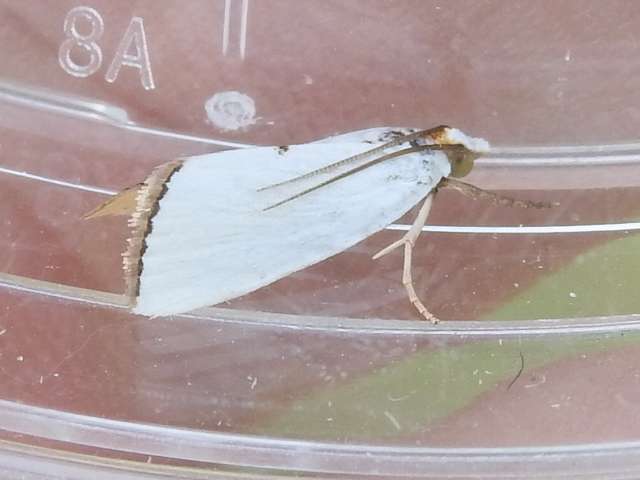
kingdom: Animalia
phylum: Arthropoda
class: Insecta
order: Lepidoptera
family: Crambidae
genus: Argyria
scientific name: Argyria nivalis
